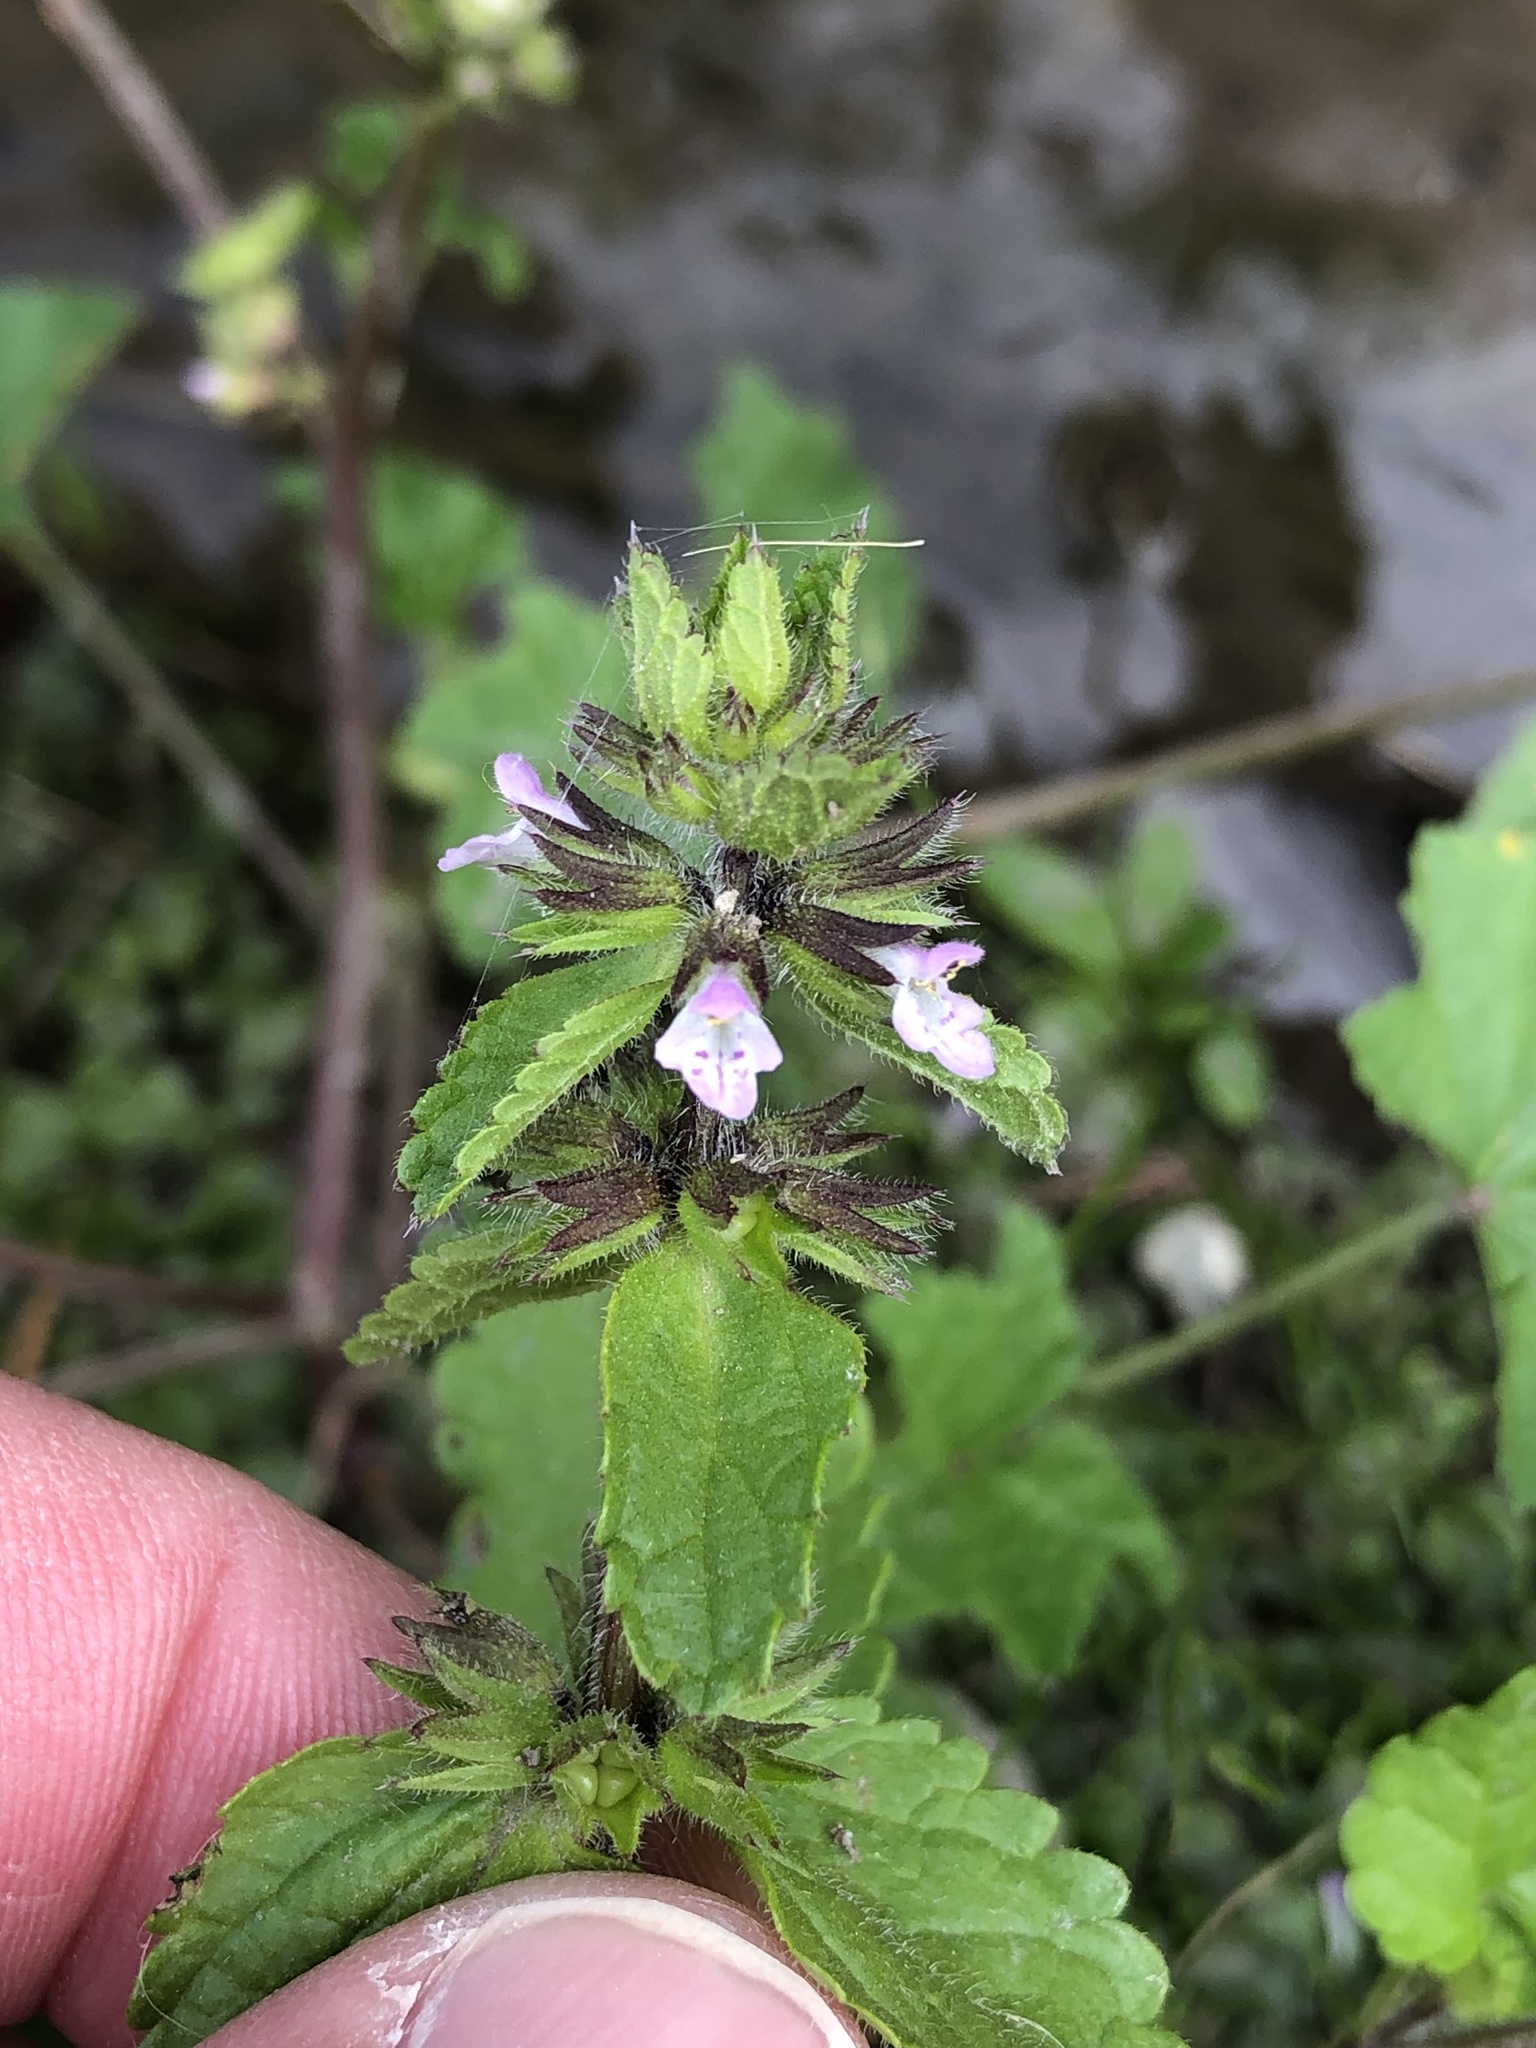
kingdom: Plantae
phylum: Tracheophyta
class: Magnoliopsida
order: Lamiales
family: Lamiaceae
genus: Stachys
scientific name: Stachys arvensis
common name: Field woundwort
